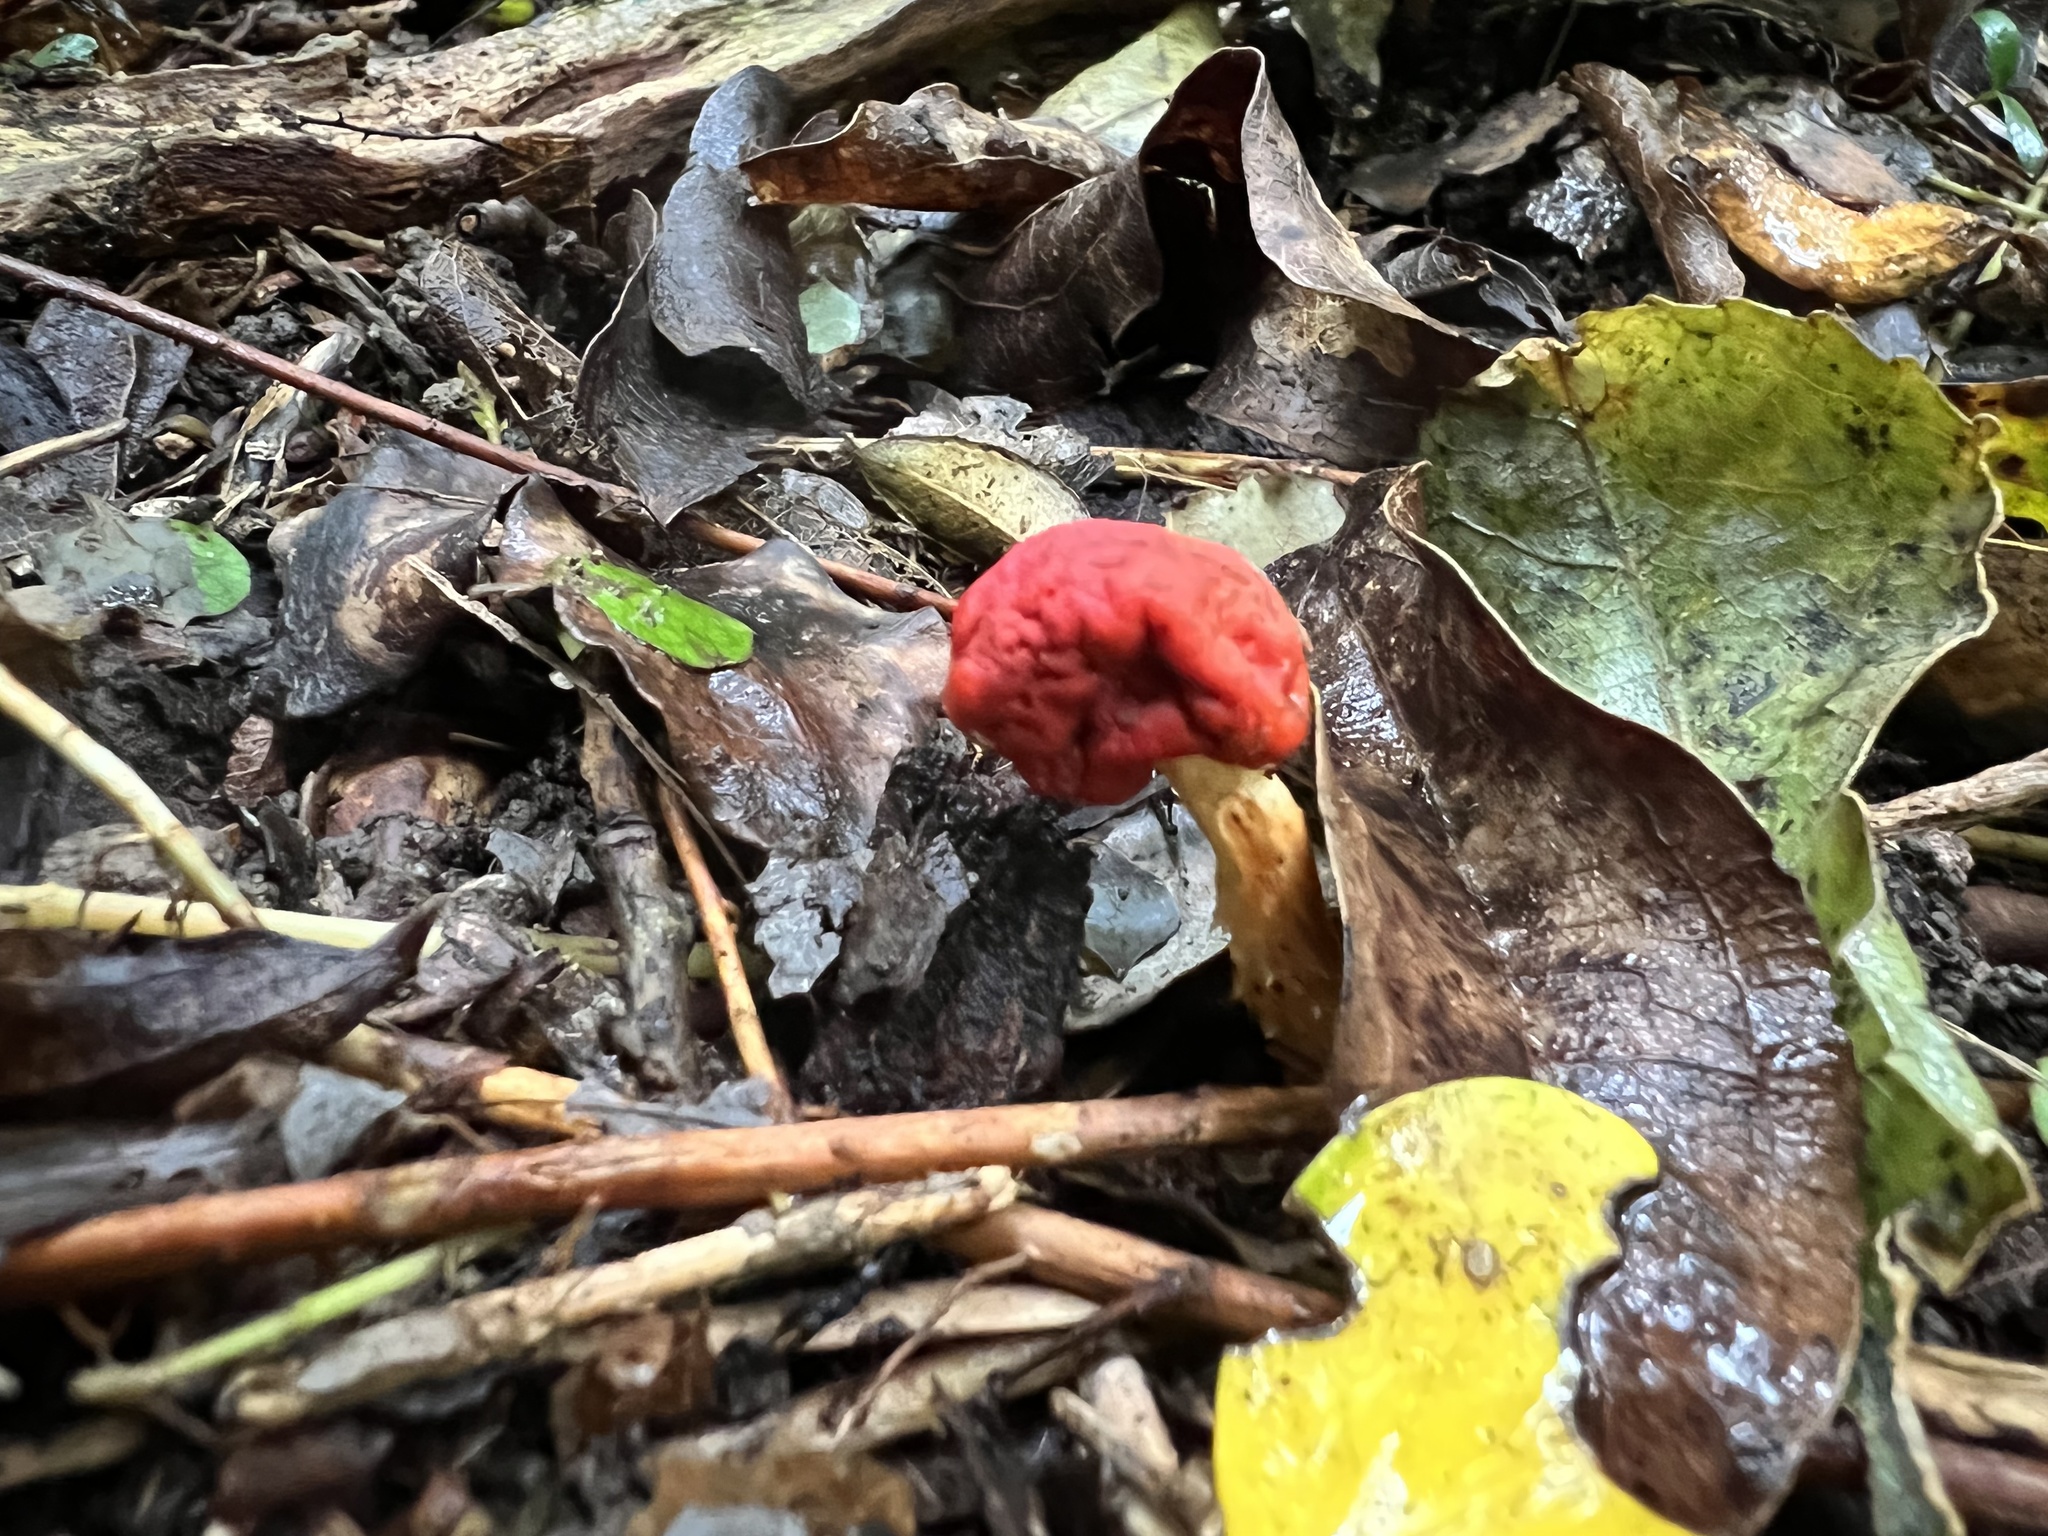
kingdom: Fungi
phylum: Basidiomycota
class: Agaricomycetes
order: Agaricales
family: Strophariaceae
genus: Leratiomyces
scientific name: Leratiomyces erythrocephalus
